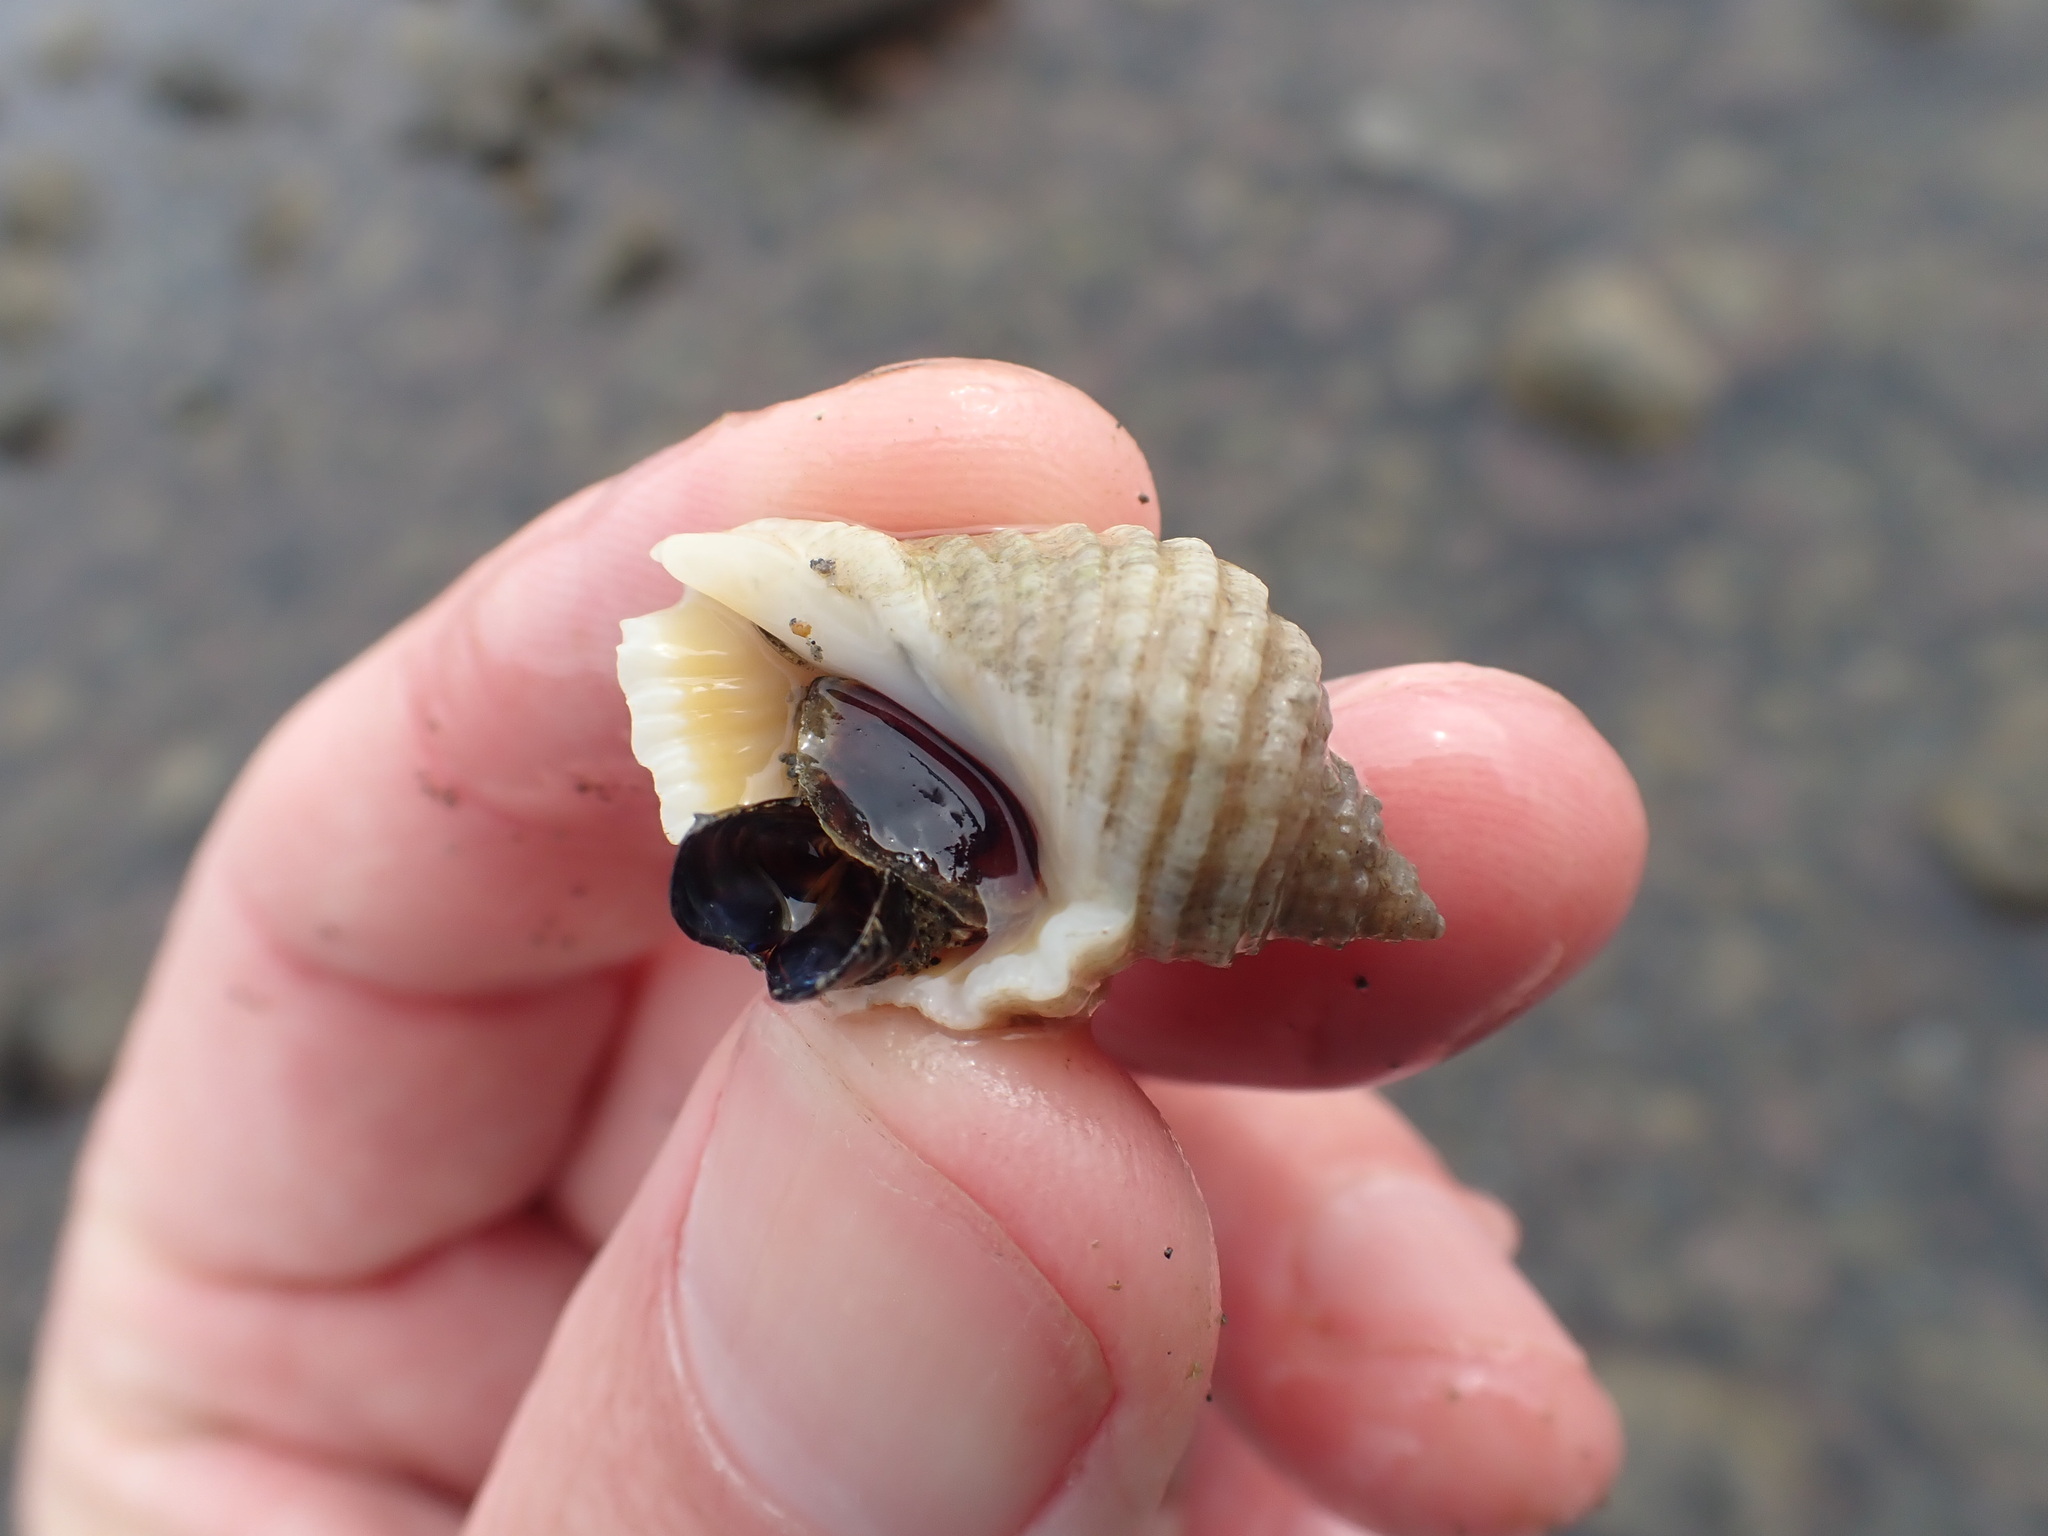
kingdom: Animalia
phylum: Mollusca
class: Gastropoda
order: Neogastropoda
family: Muricidae
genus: Dicathais
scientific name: Dicathais orbita
